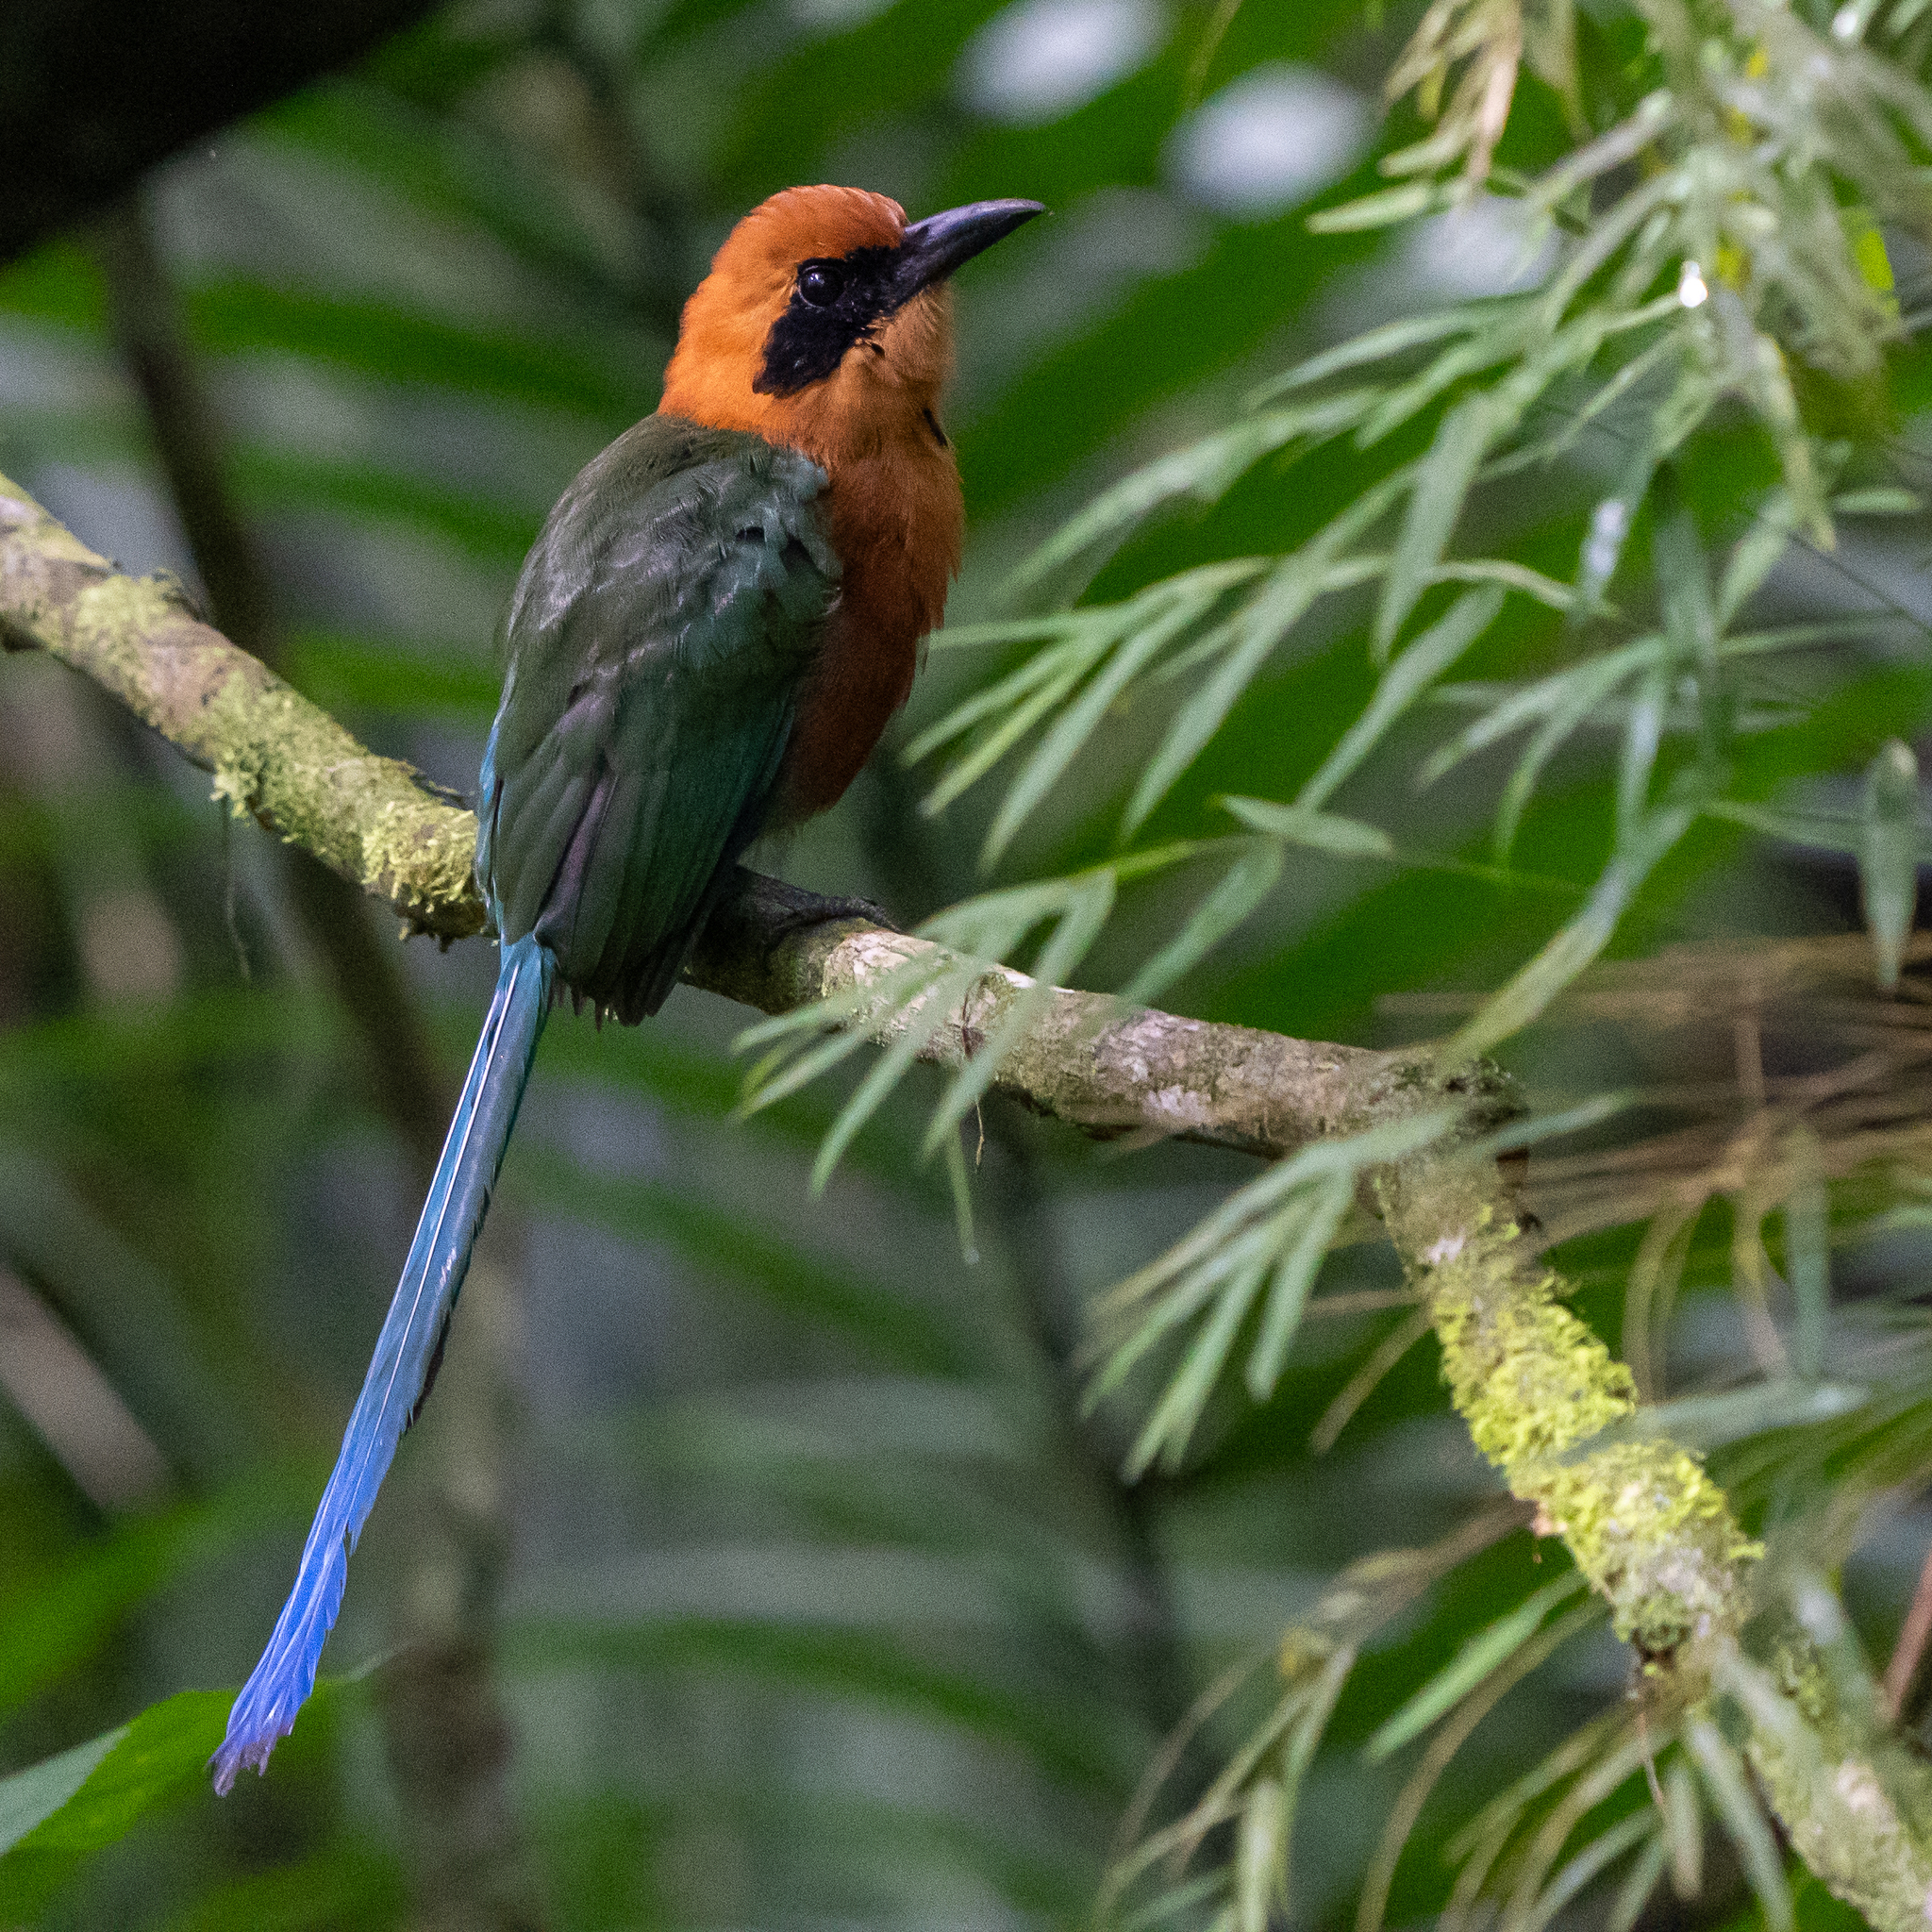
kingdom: Animalia
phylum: Chordata
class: Aves
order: Coraciiformes
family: Momotidae
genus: Baryphthengus
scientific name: Baryphthengus martii
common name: Rufous motmot
